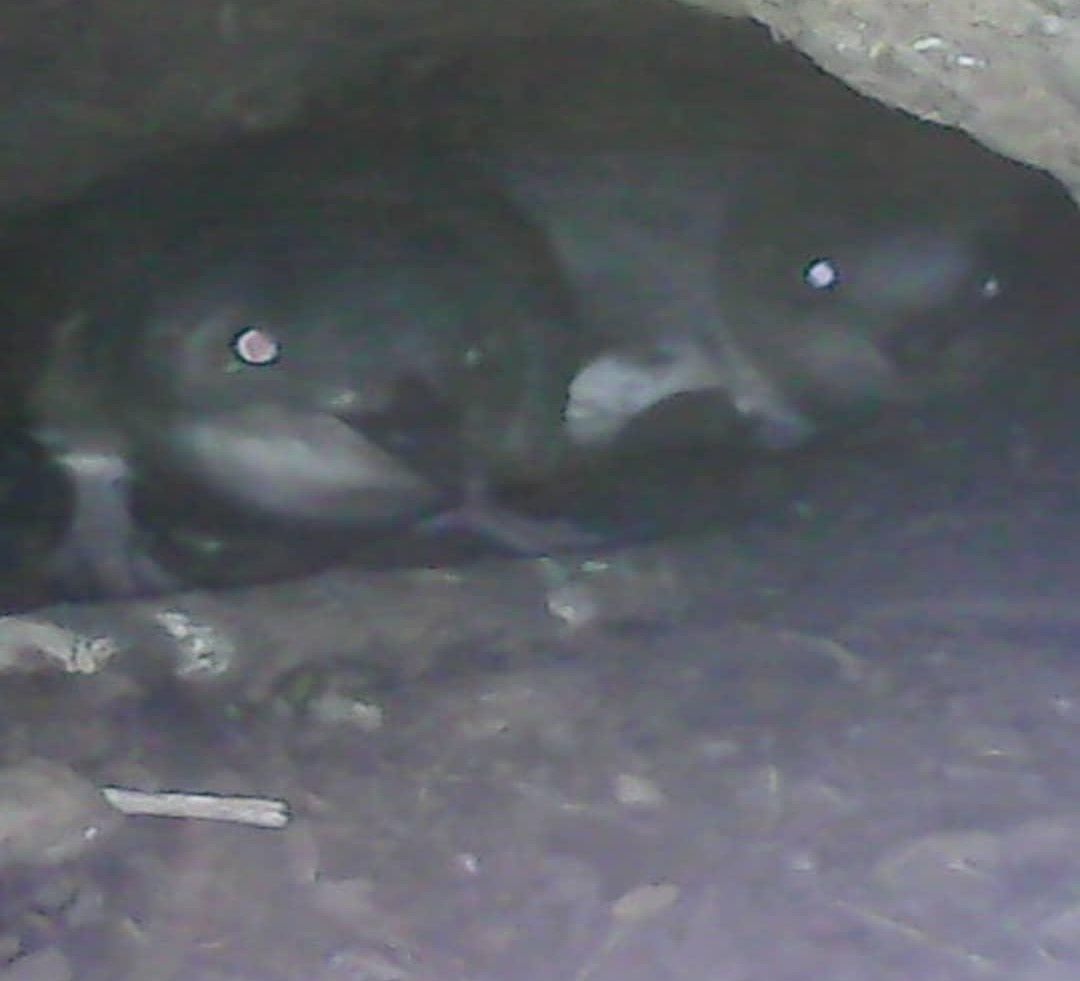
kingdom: Animalia
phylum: Chordata
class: Aves
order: Sphenisciformes
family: Spheniscidae
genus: Eudyptula
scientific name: Eudyptula minor
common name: Little penguin
